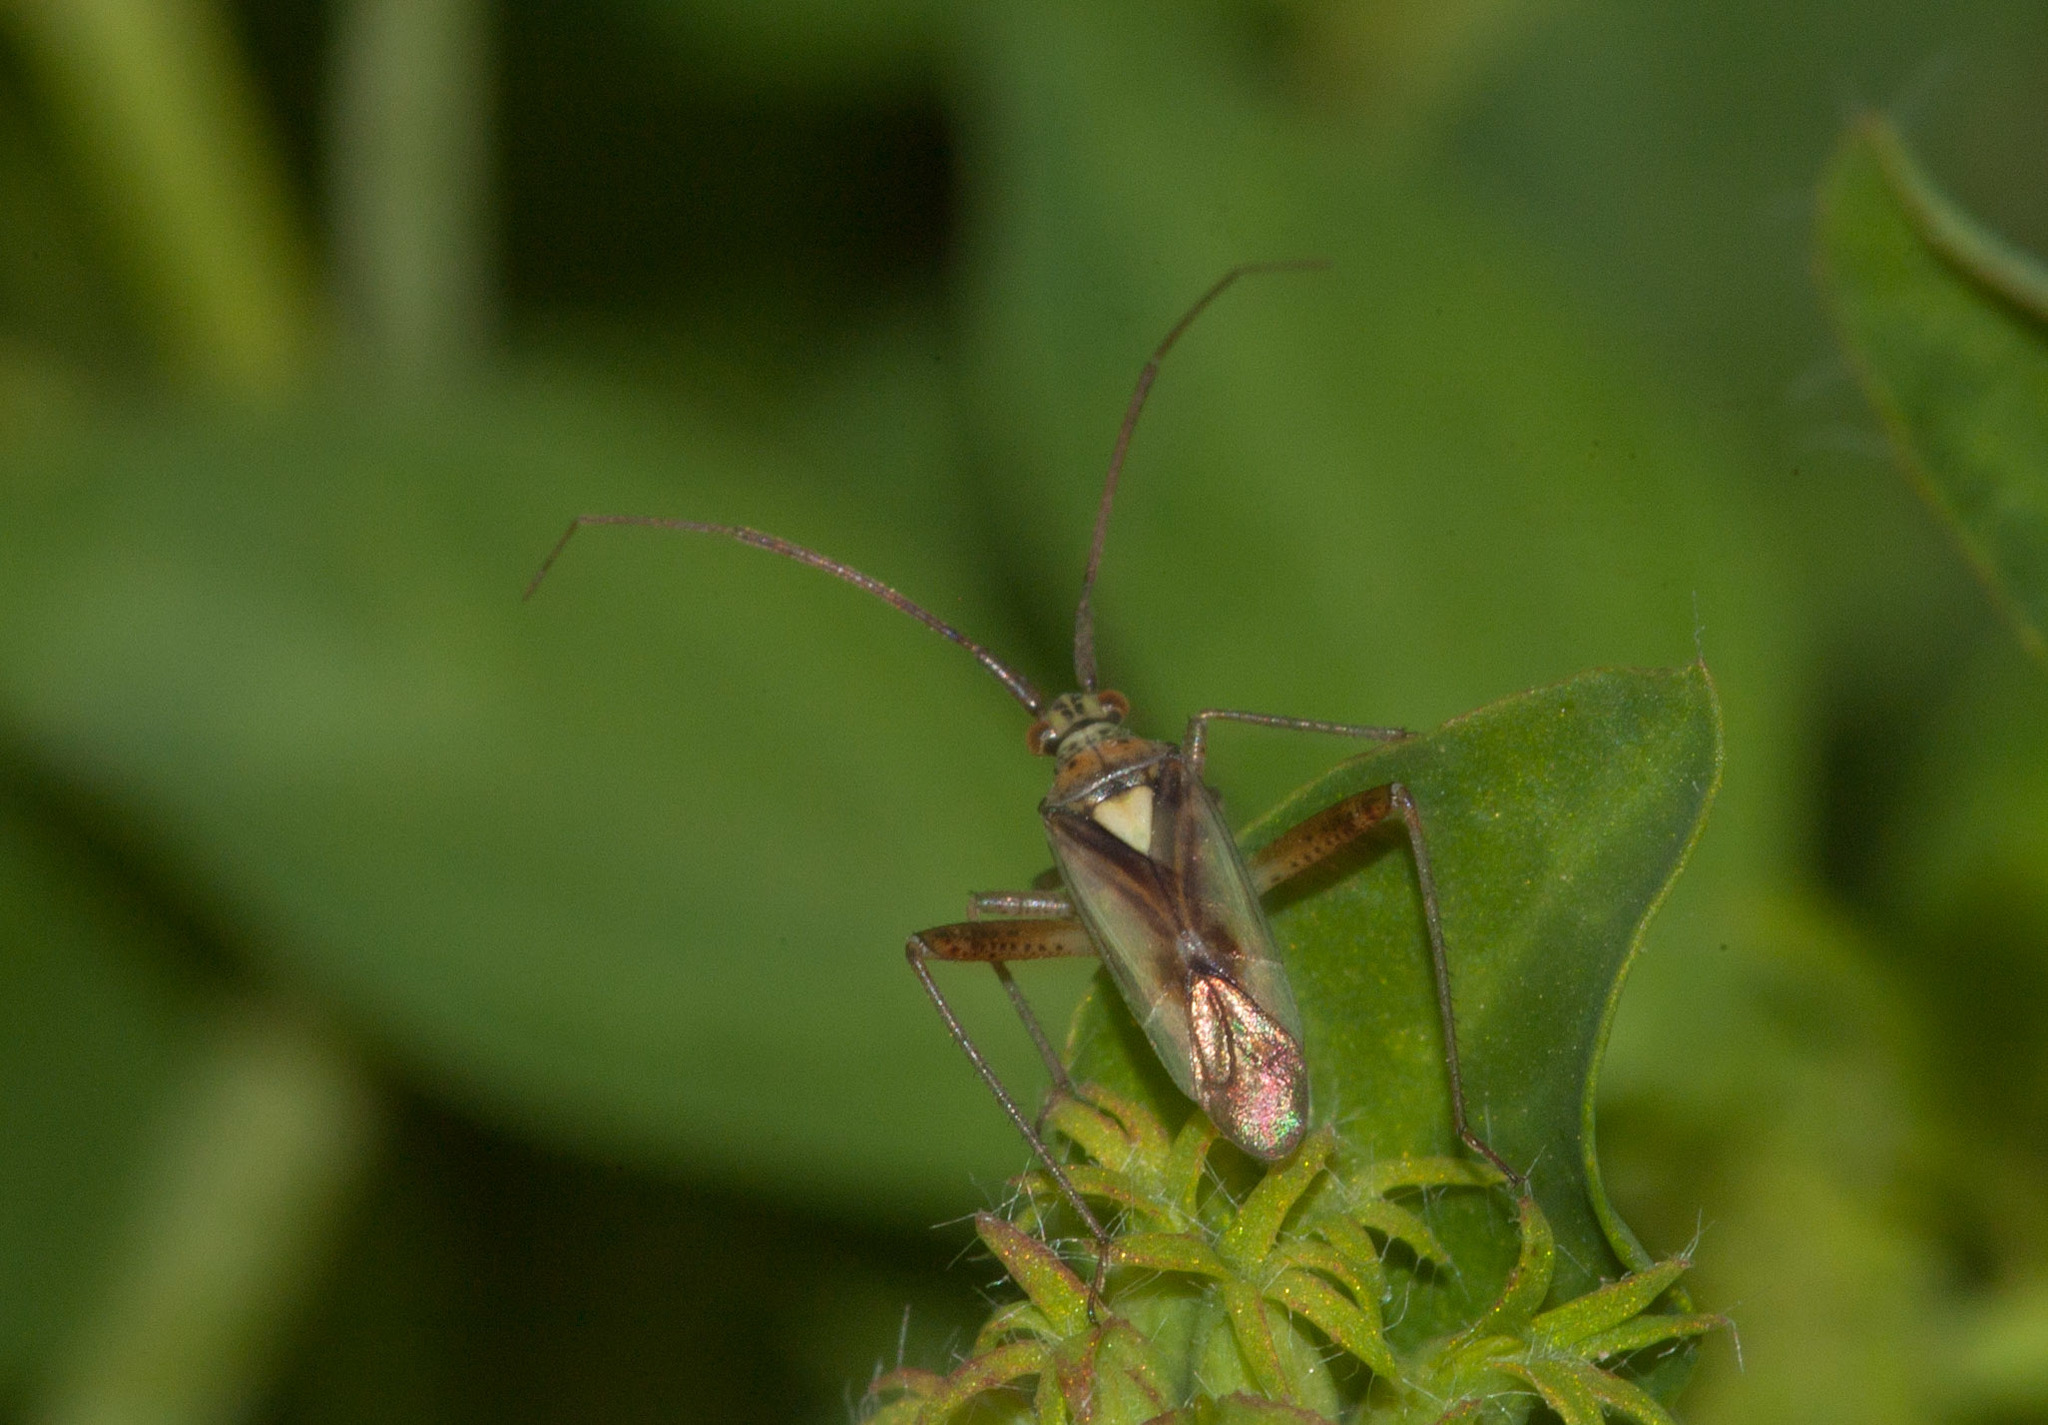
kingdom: Animalia
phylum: Arthropoda
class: Insecta
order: Hemiptera
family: Miridae
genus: Lincolnia
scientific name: Lincolnia lucernina
